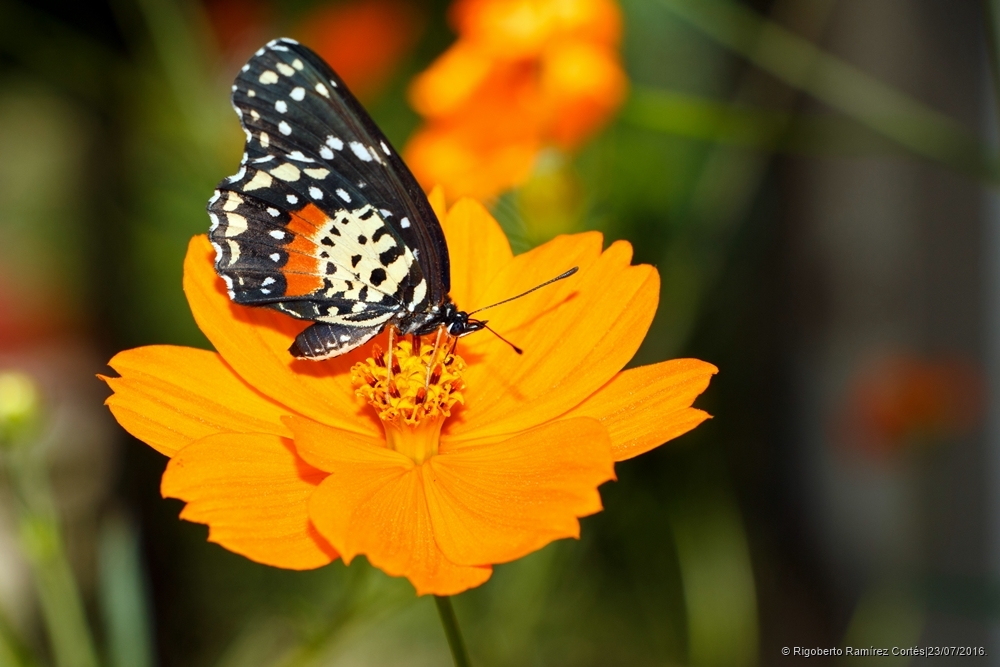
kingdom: Animalia
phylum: Arthropoda
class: Insecta
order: Lepidoptera
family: Nymphalidae
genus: Chlosyne
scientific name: Chlosyne janais
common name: Crimson patch
